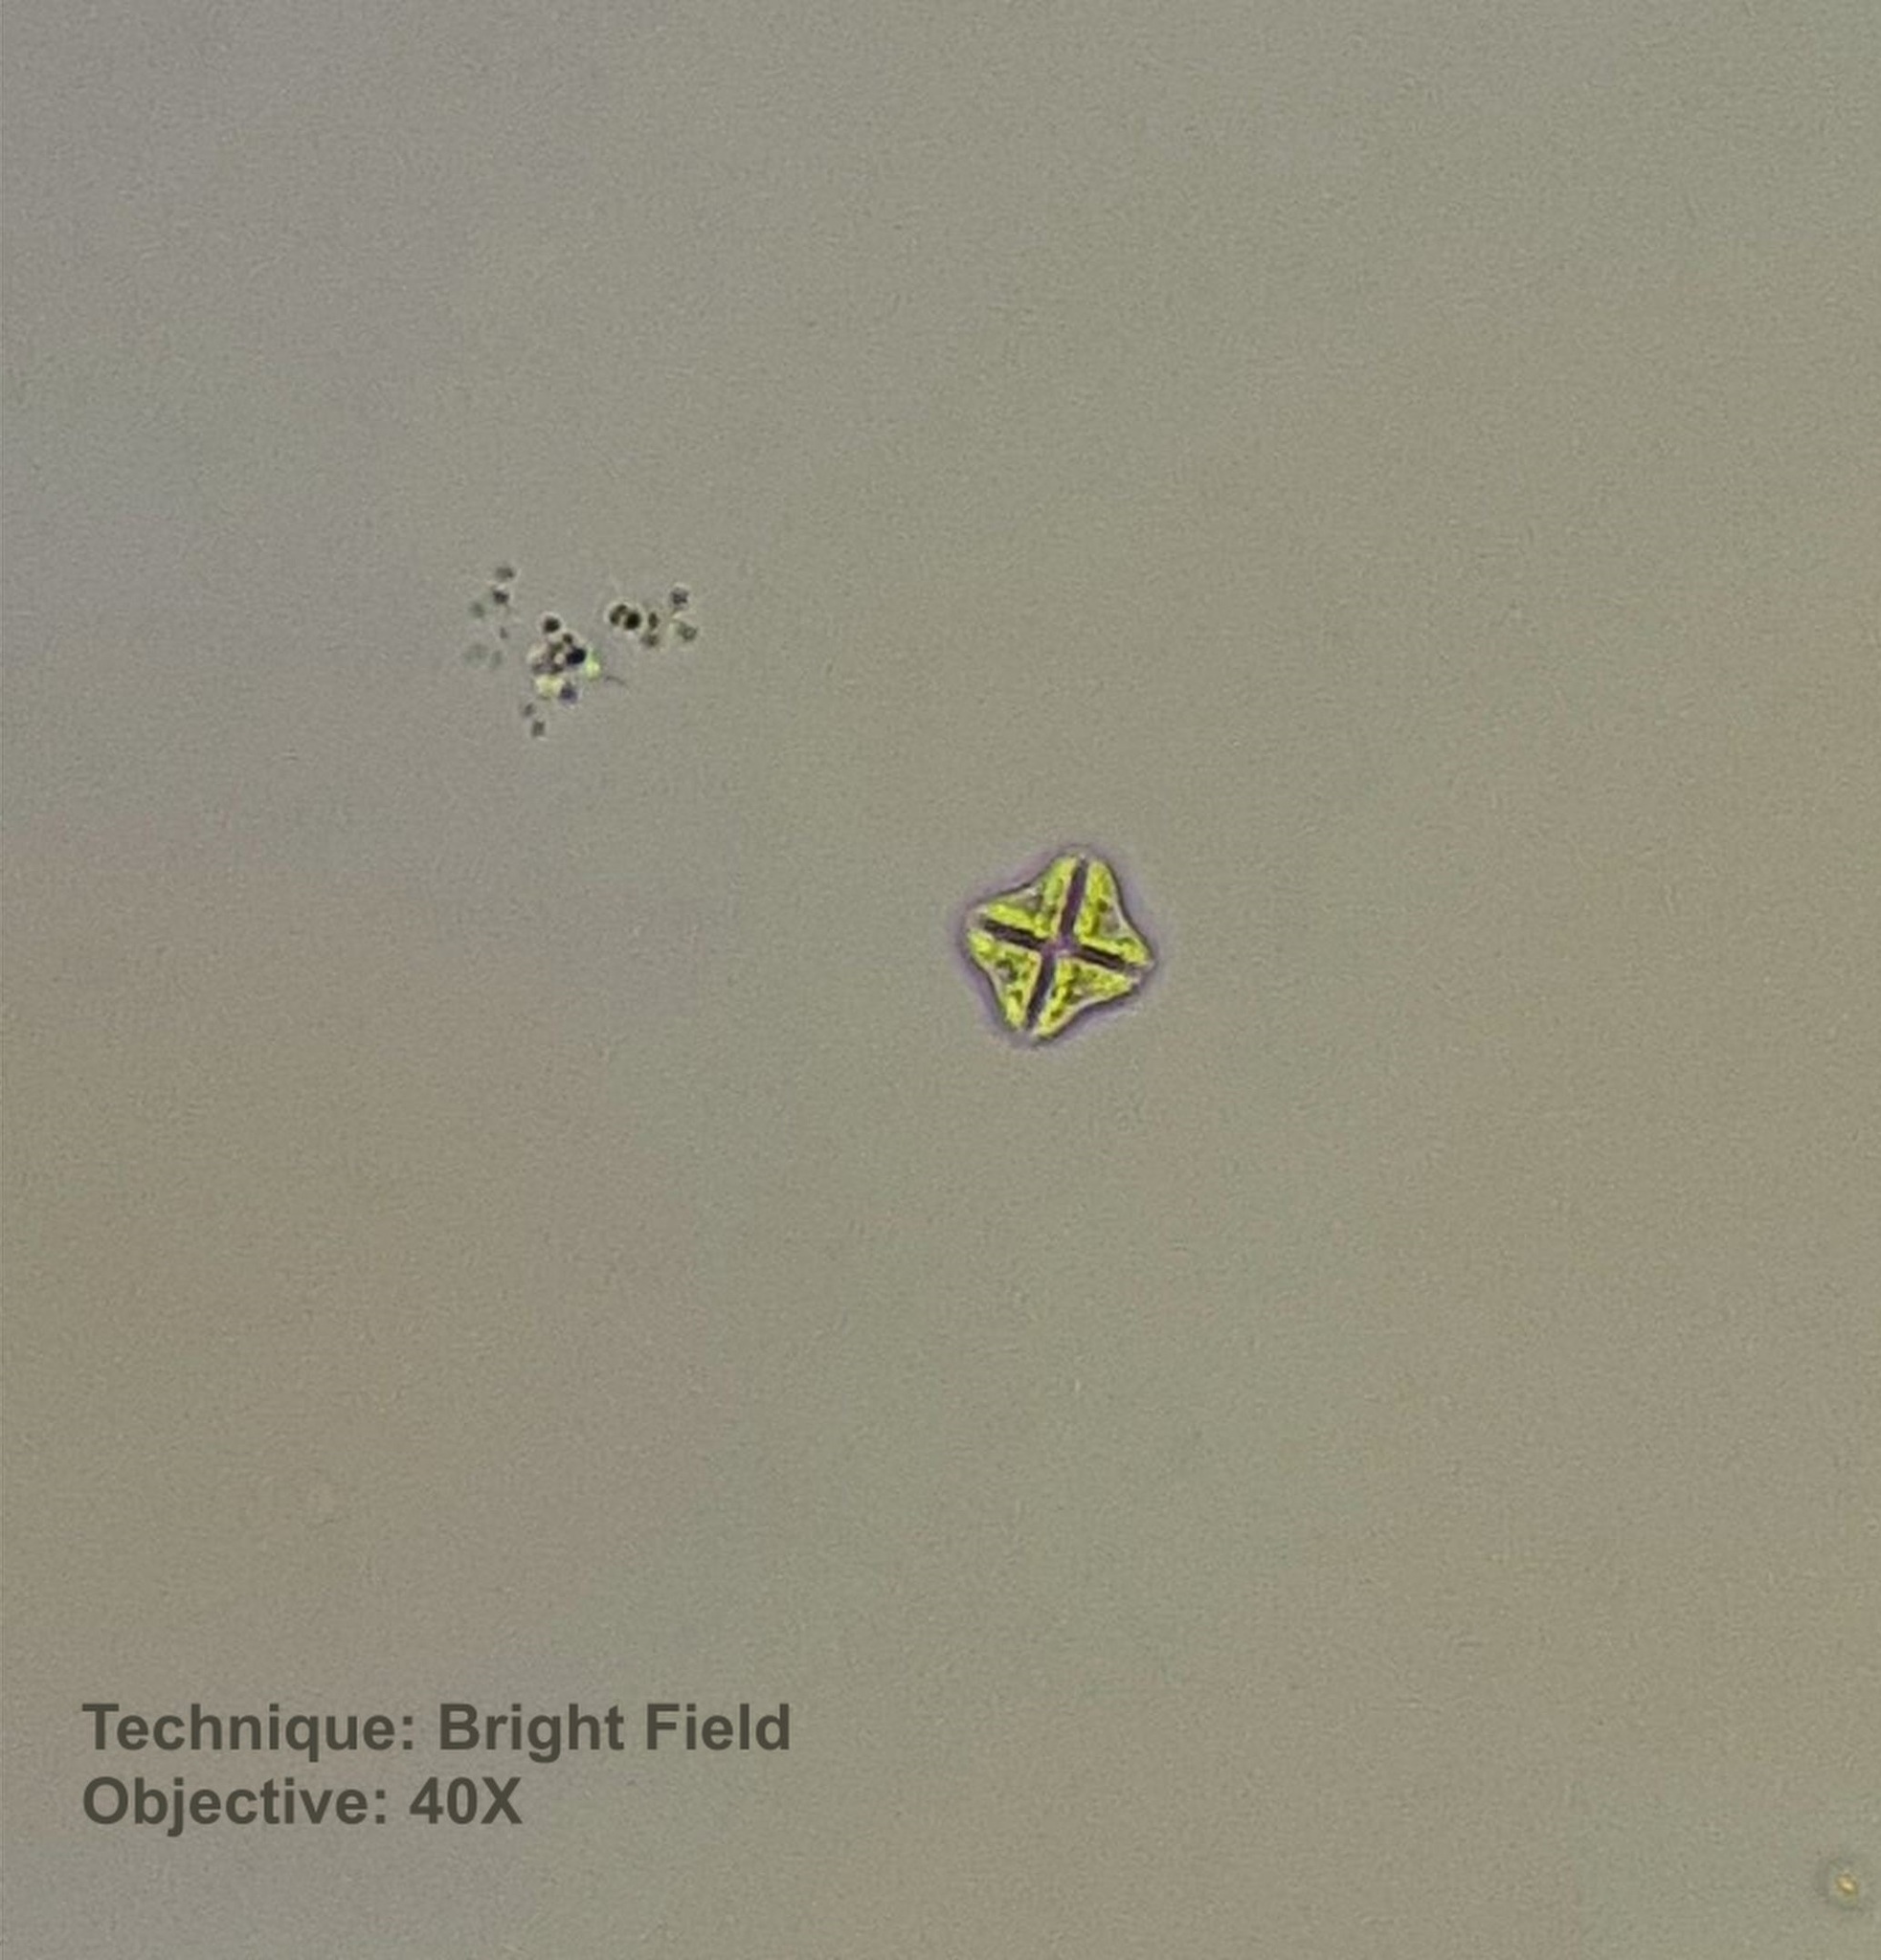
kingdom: Plantae
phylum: Chlorophyta
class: Trebouxiophyceae
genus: Crucigenia
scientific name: Crucigenia tetrapedia
